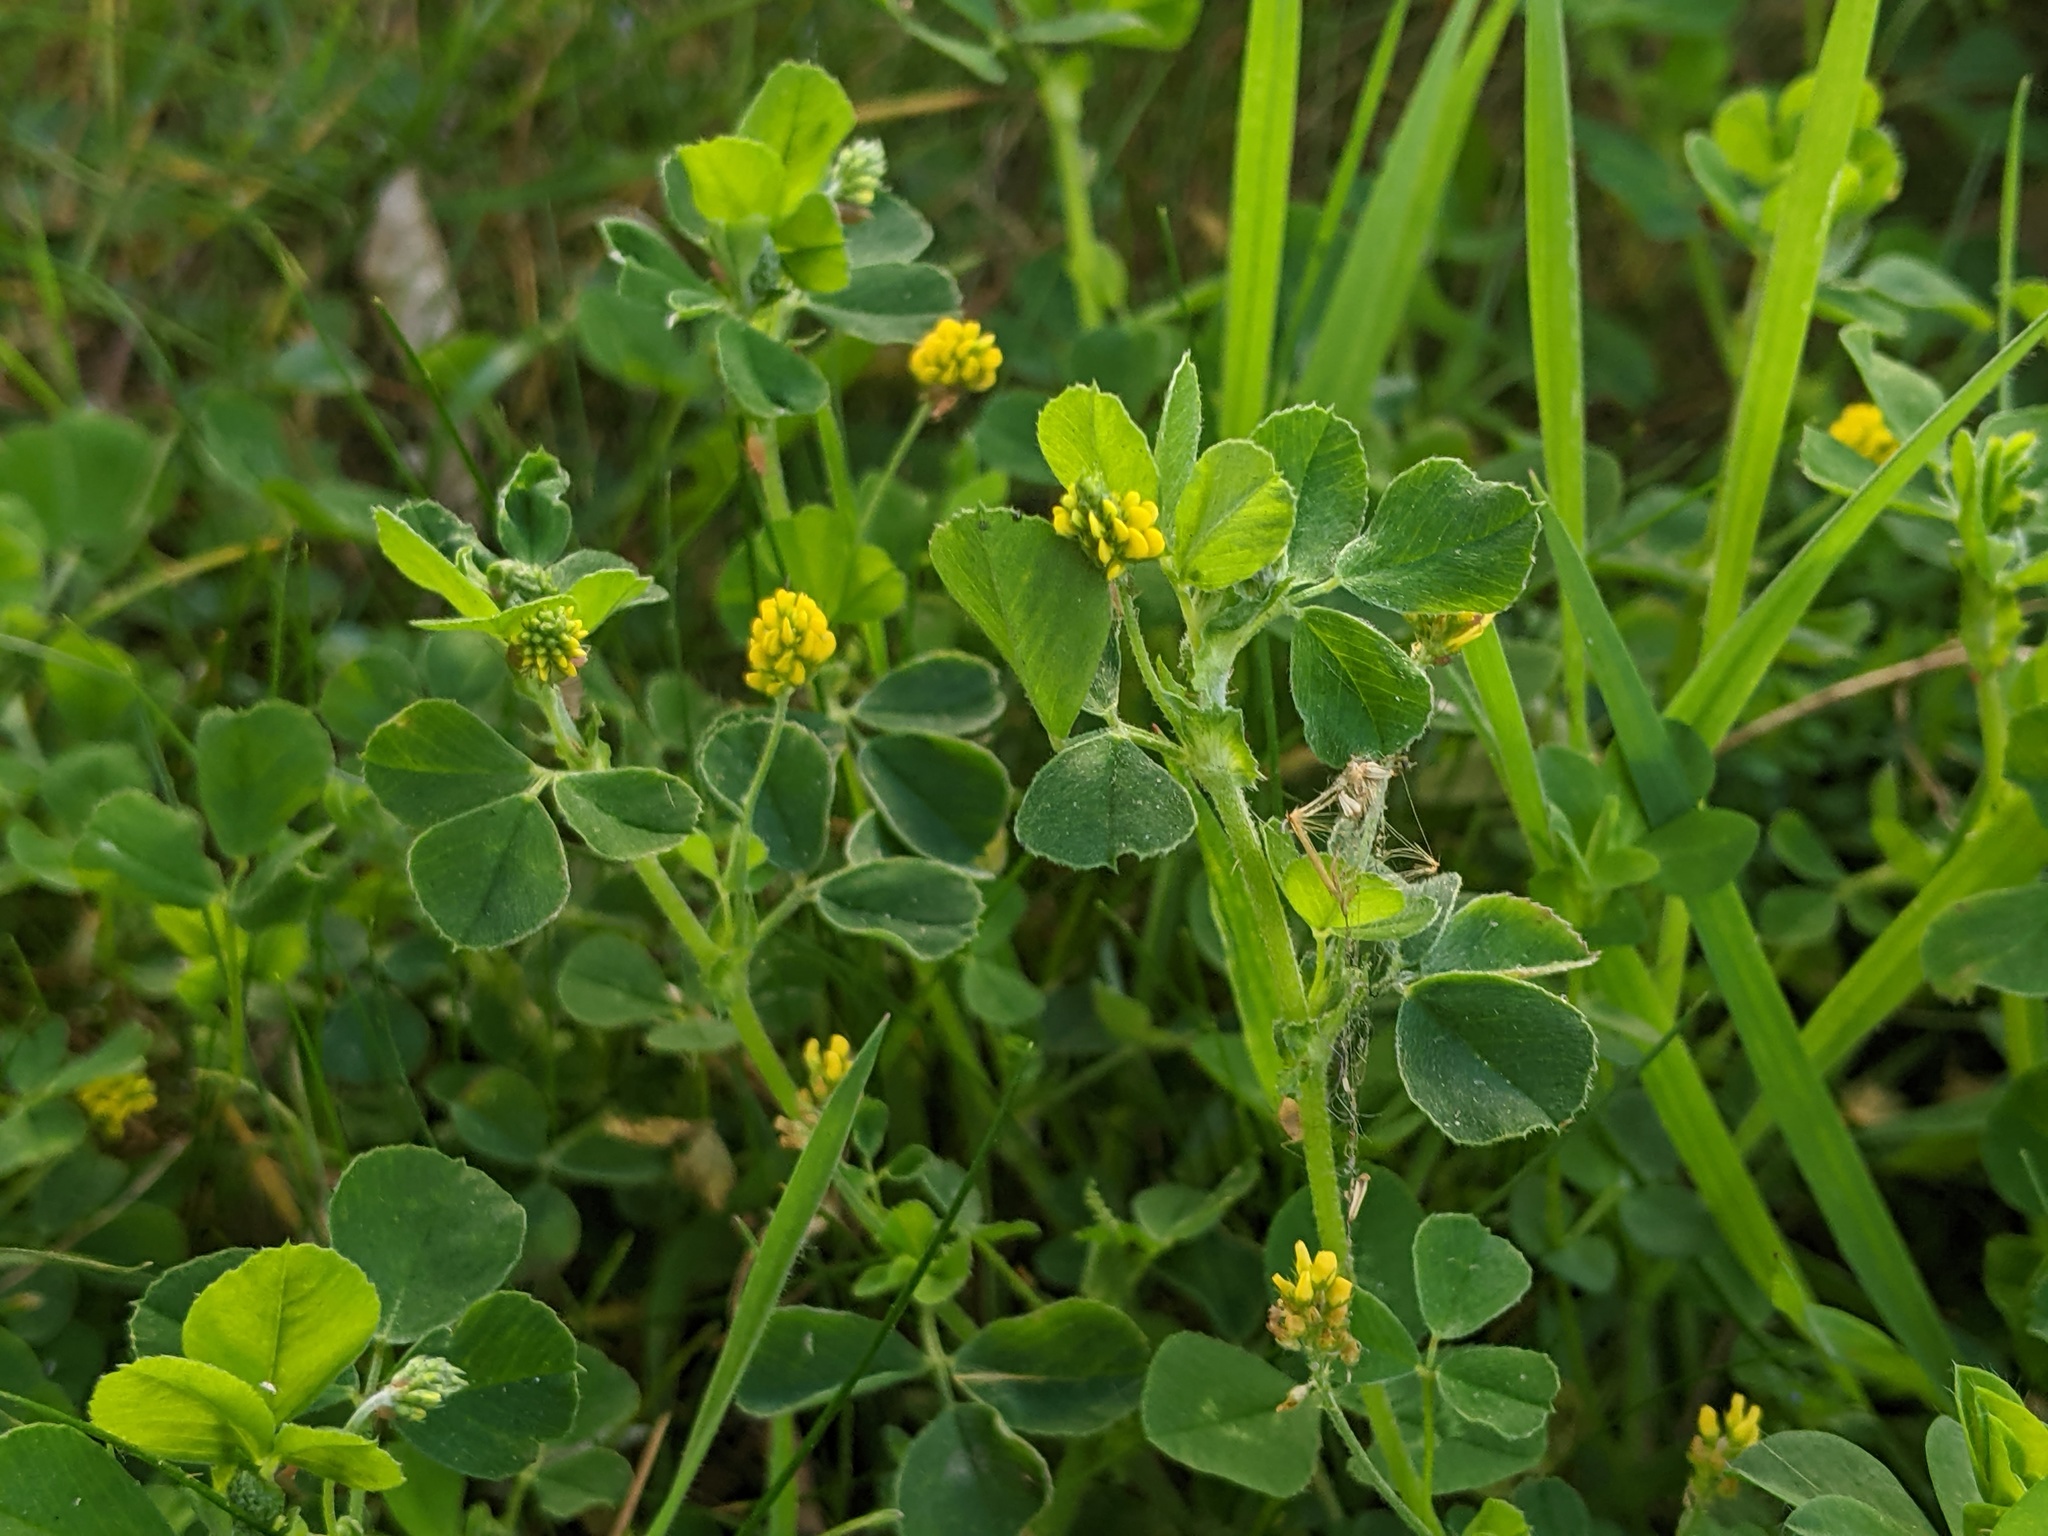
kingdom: Plantae
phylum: Tracheophyta
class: Magnoliopsida
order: Fabales
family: Fabaceae
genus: Medicago
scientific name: Medicago lupulina
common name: Black medick
